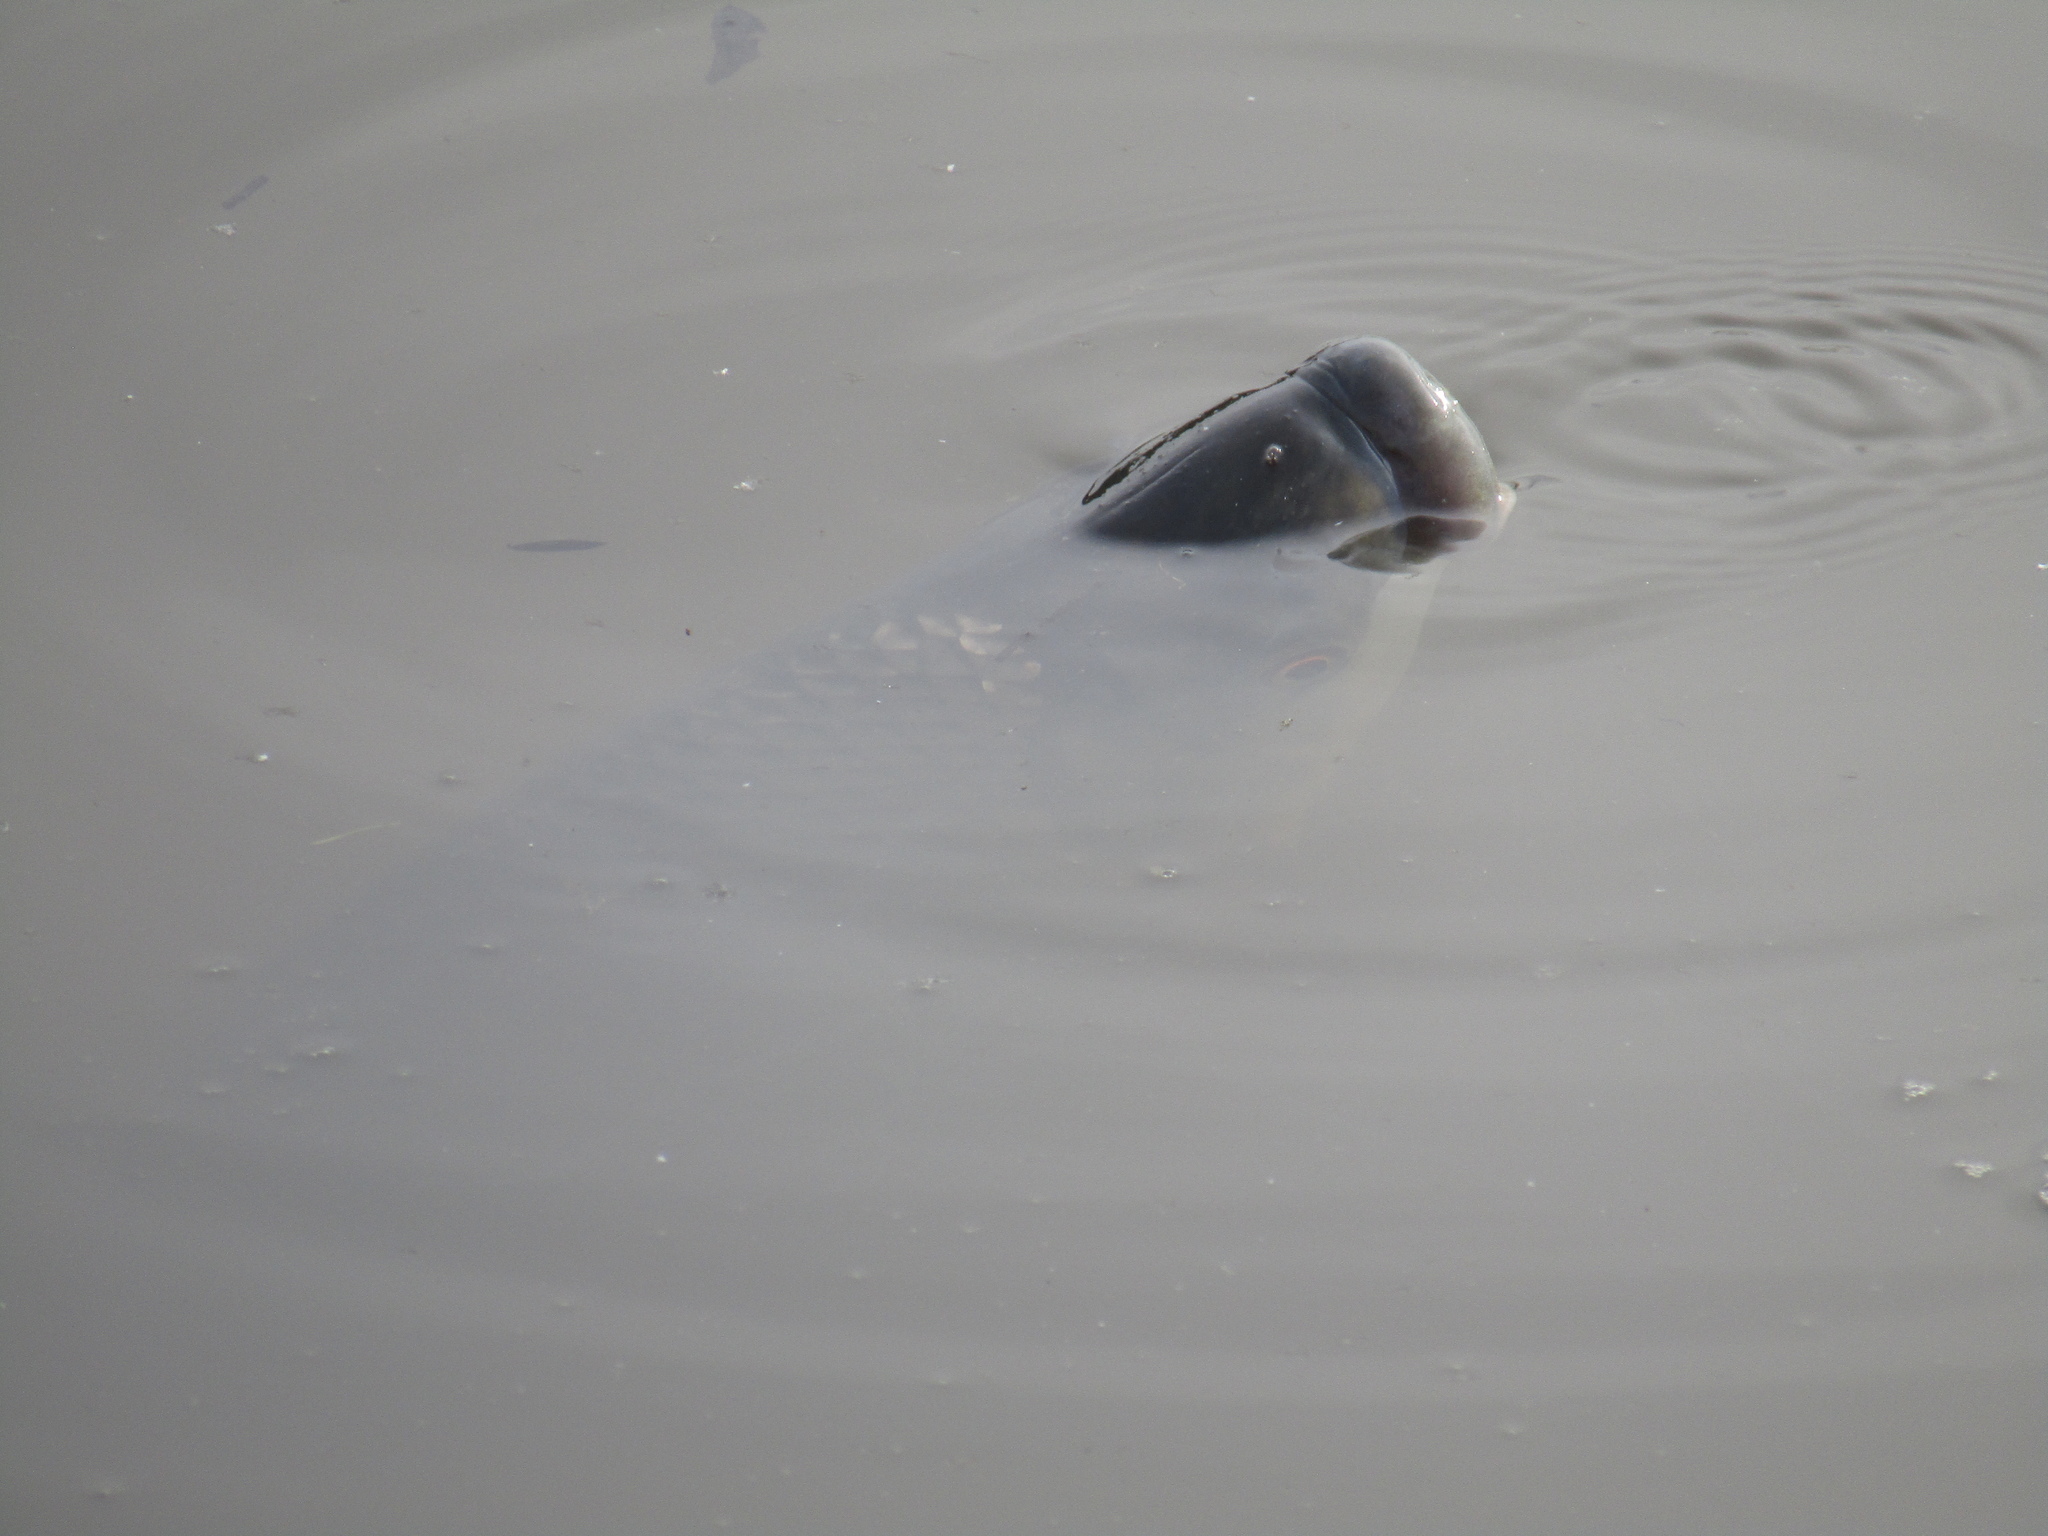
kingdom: Animalia
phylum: Chordata
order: Characiformes
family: Prochilodontidae
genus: Prochilodus
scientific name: Prochilodus lineatus
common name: Curimbata
